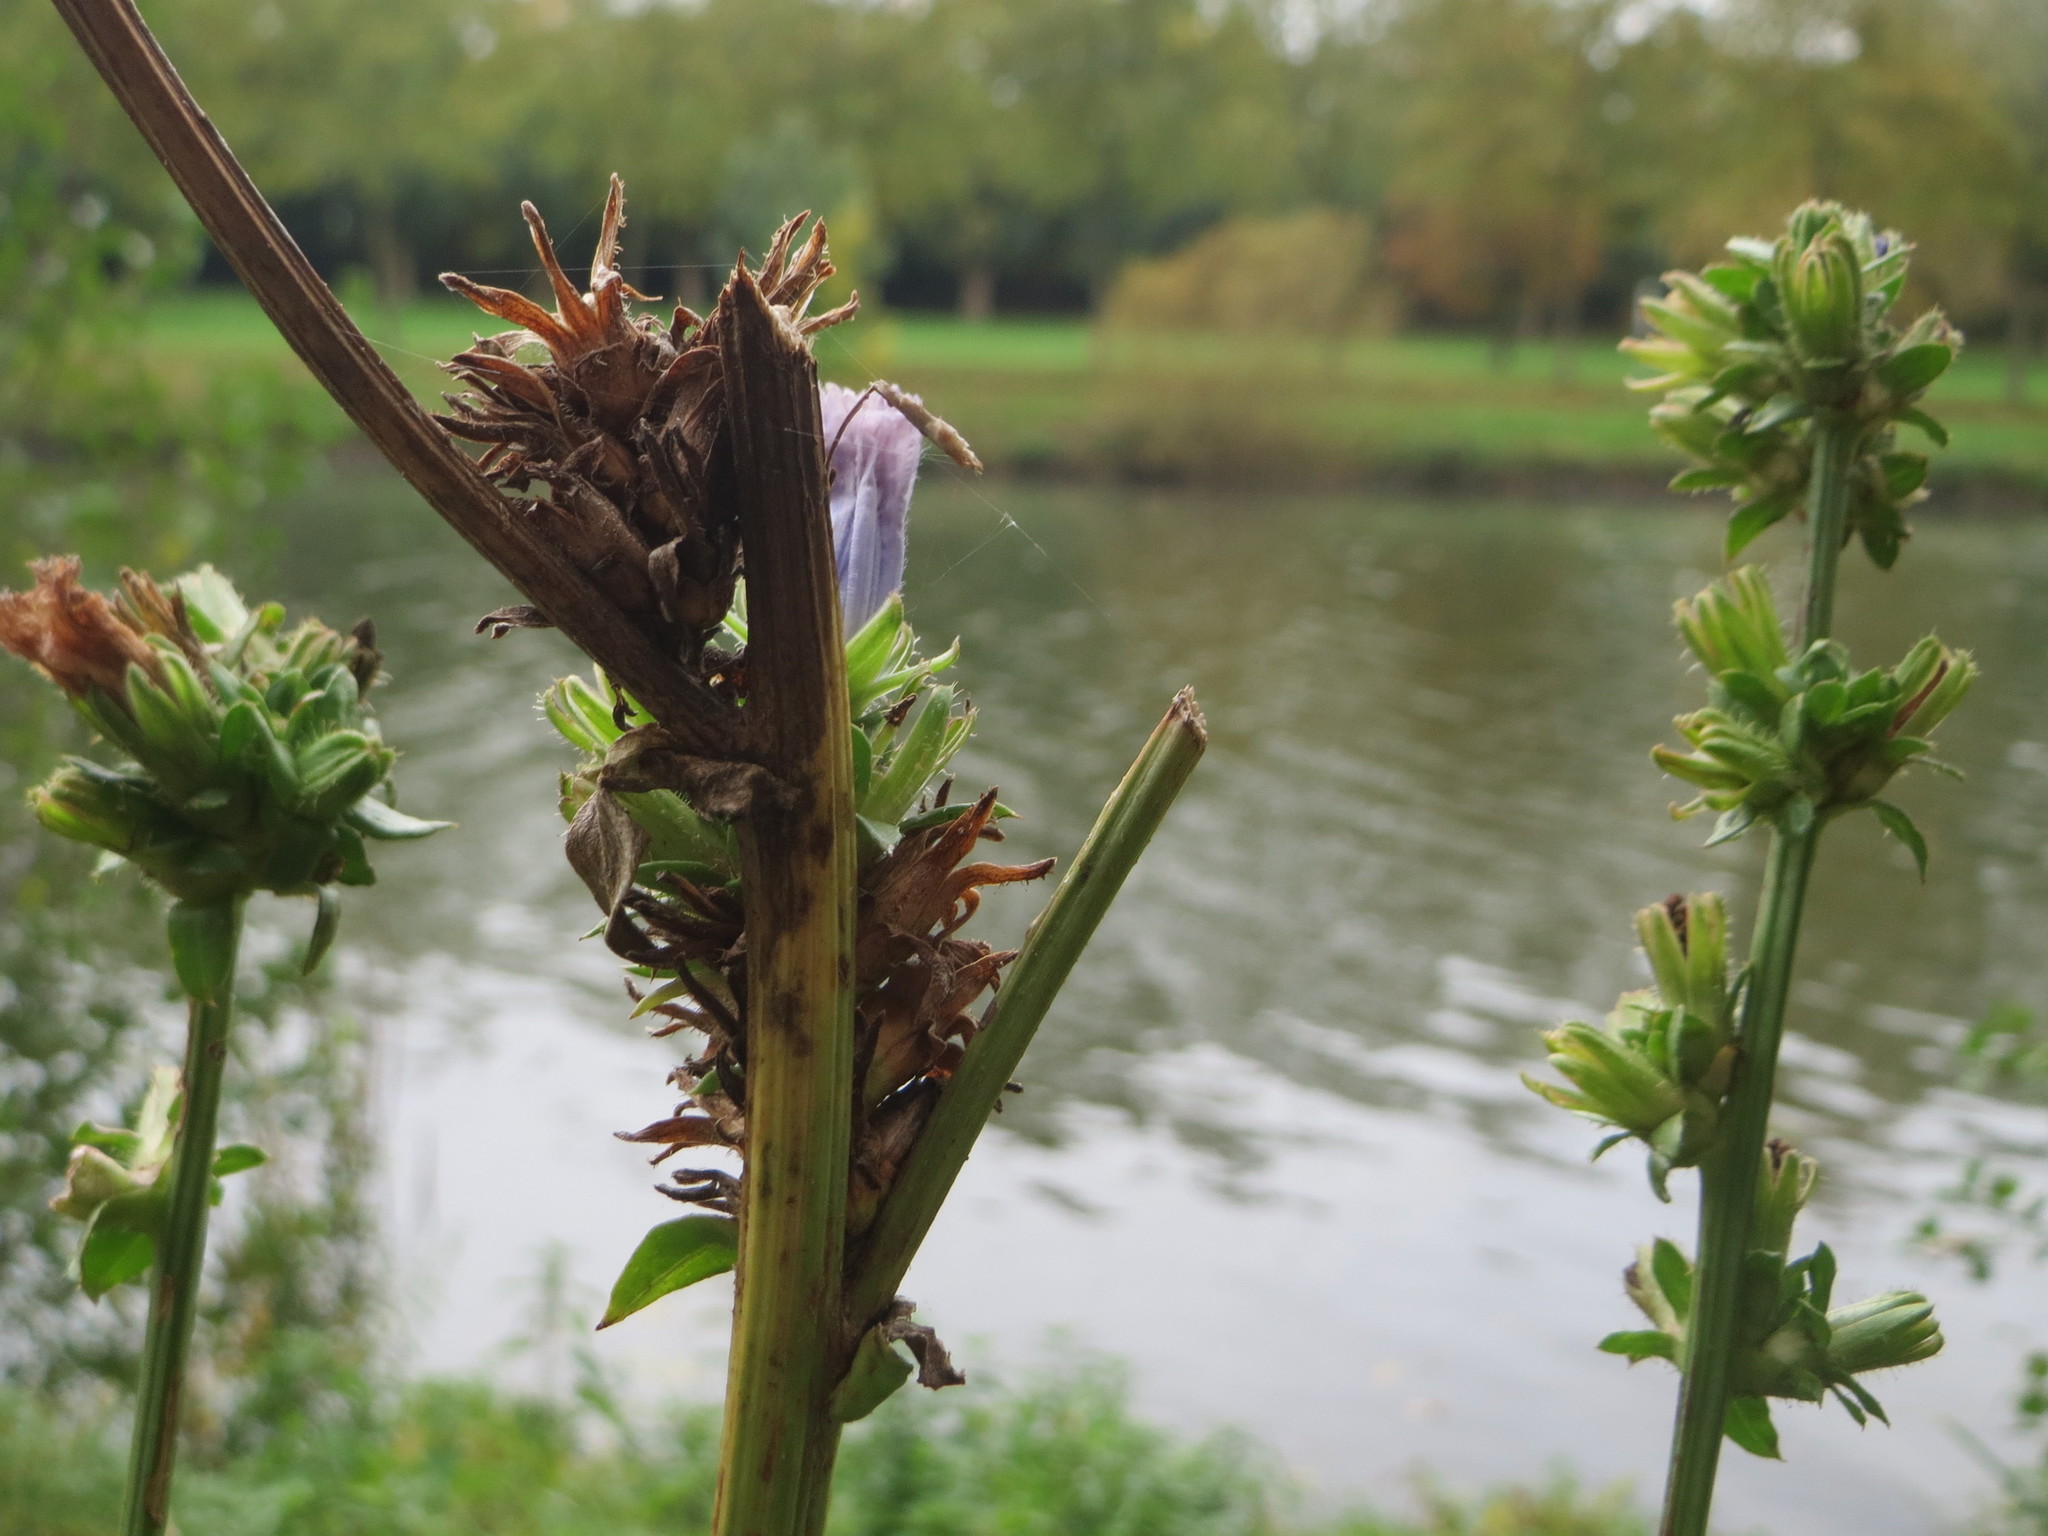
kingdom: Plantae
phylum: Tracheophyta
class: Magnoliopsida
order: Asterales
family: Asteraceae
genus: Cichorium
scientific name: Cichorium intybus
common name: Chicory
